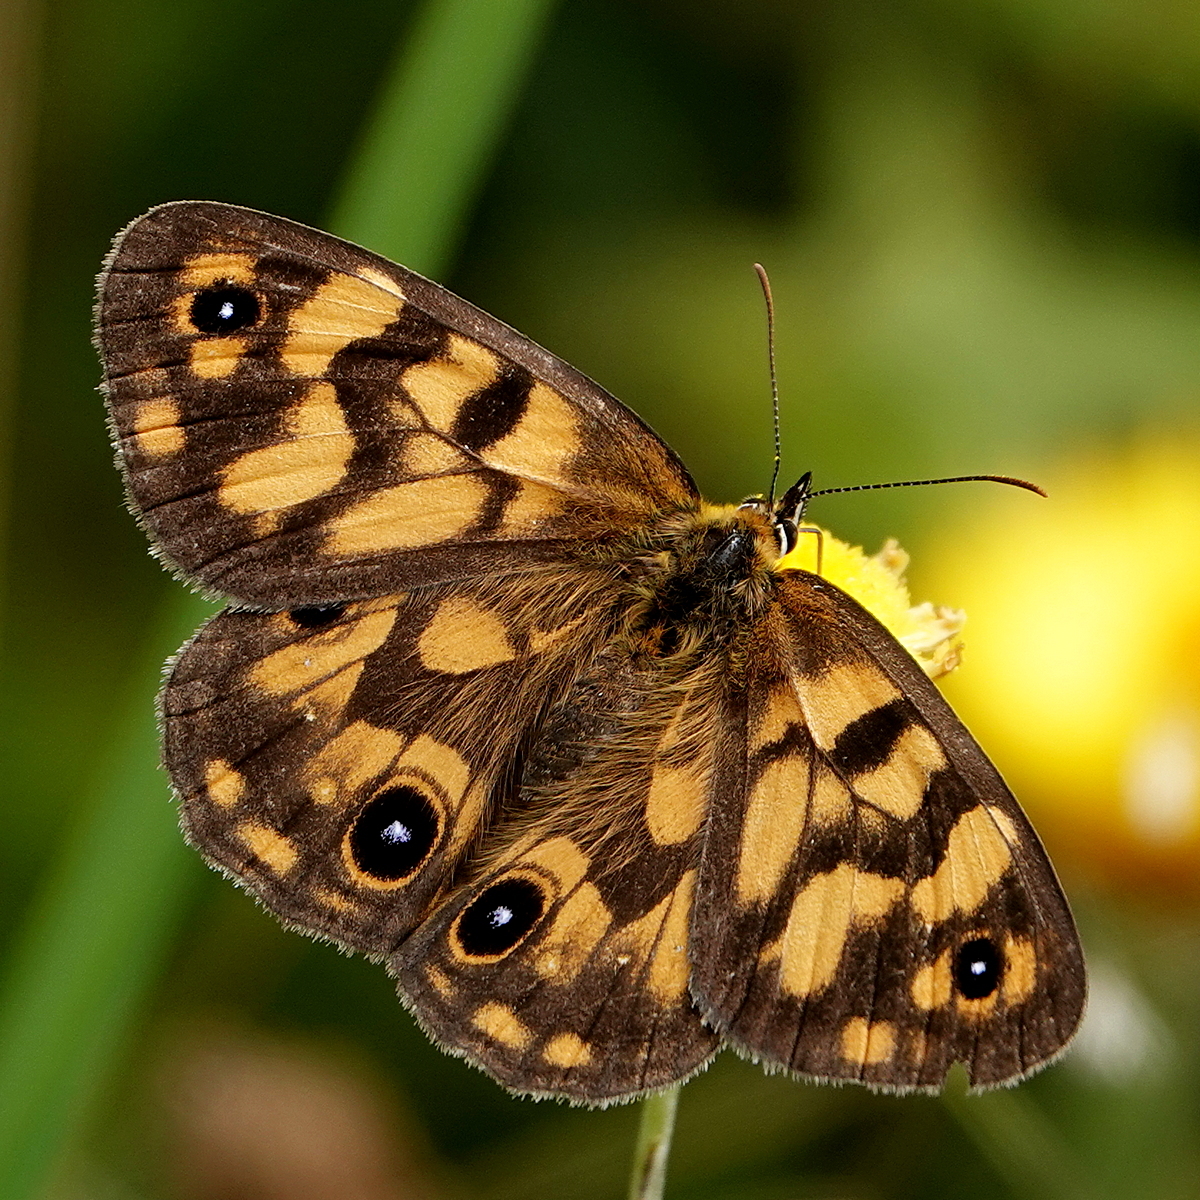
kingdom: Animalia
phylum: Arthropoda
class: Insecta
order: Lepidoptera
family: Nymphalidae
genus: Heteronympha
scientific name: Heteronympha cordace
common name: Bright-eyed brown
